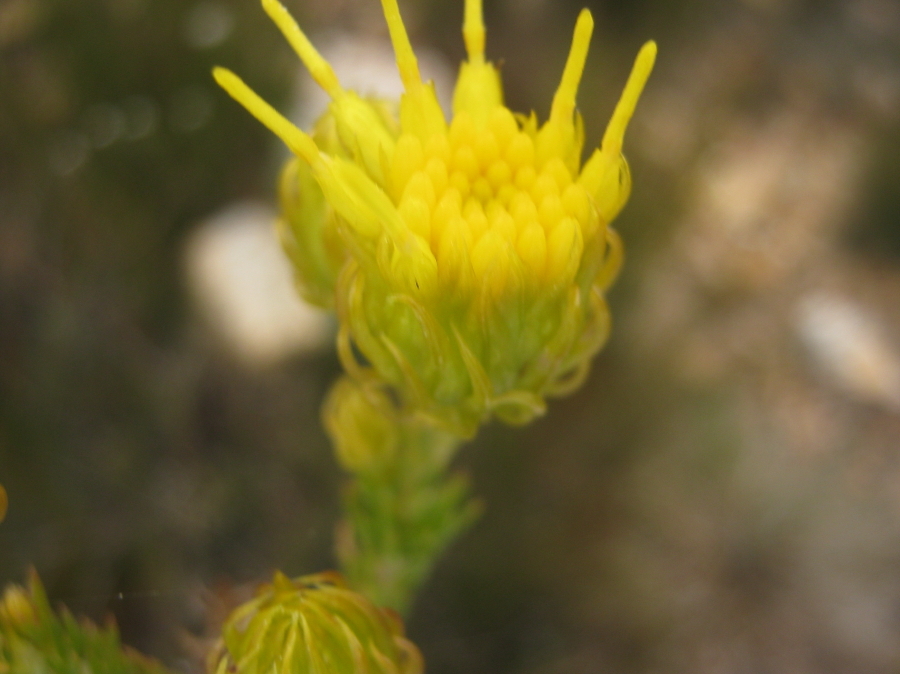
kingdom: Plantae
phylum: Tracheophyta
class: Magnoliopsida
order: Asterales
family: Asteraceae
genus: Pteronia
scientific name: Pteronia camphorata
